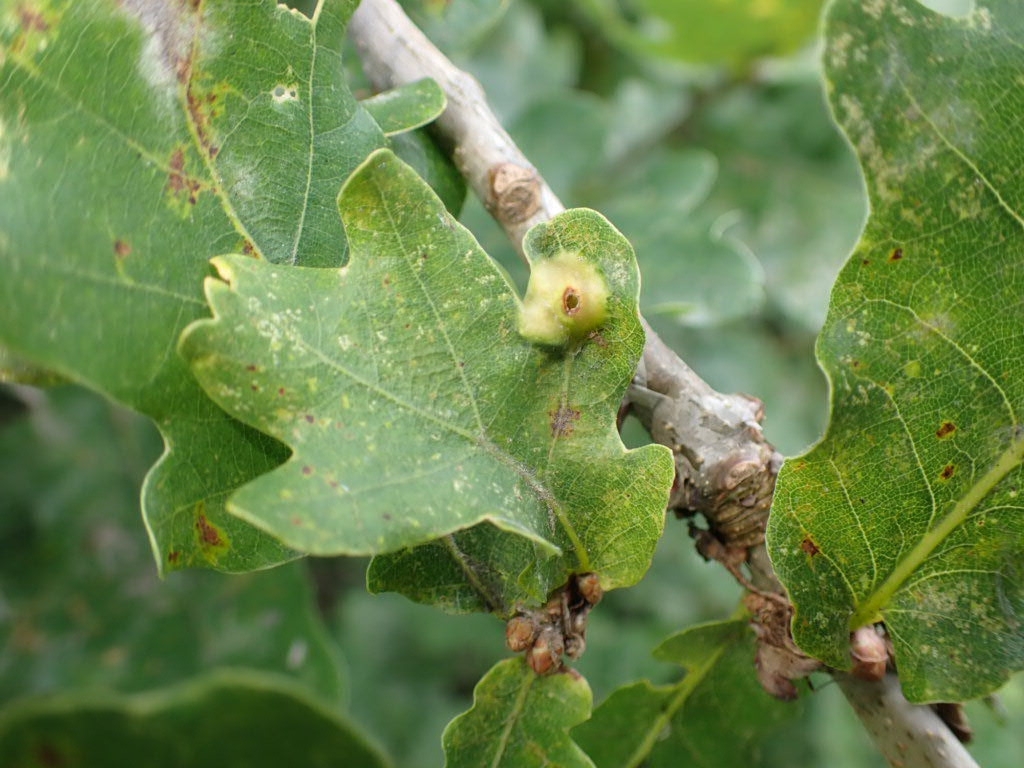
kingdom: Animalia
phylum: Arthropoda
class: Insecta
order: Hymenoptera
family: Cynipidae
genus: Andricus
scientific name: Andricus curvator
